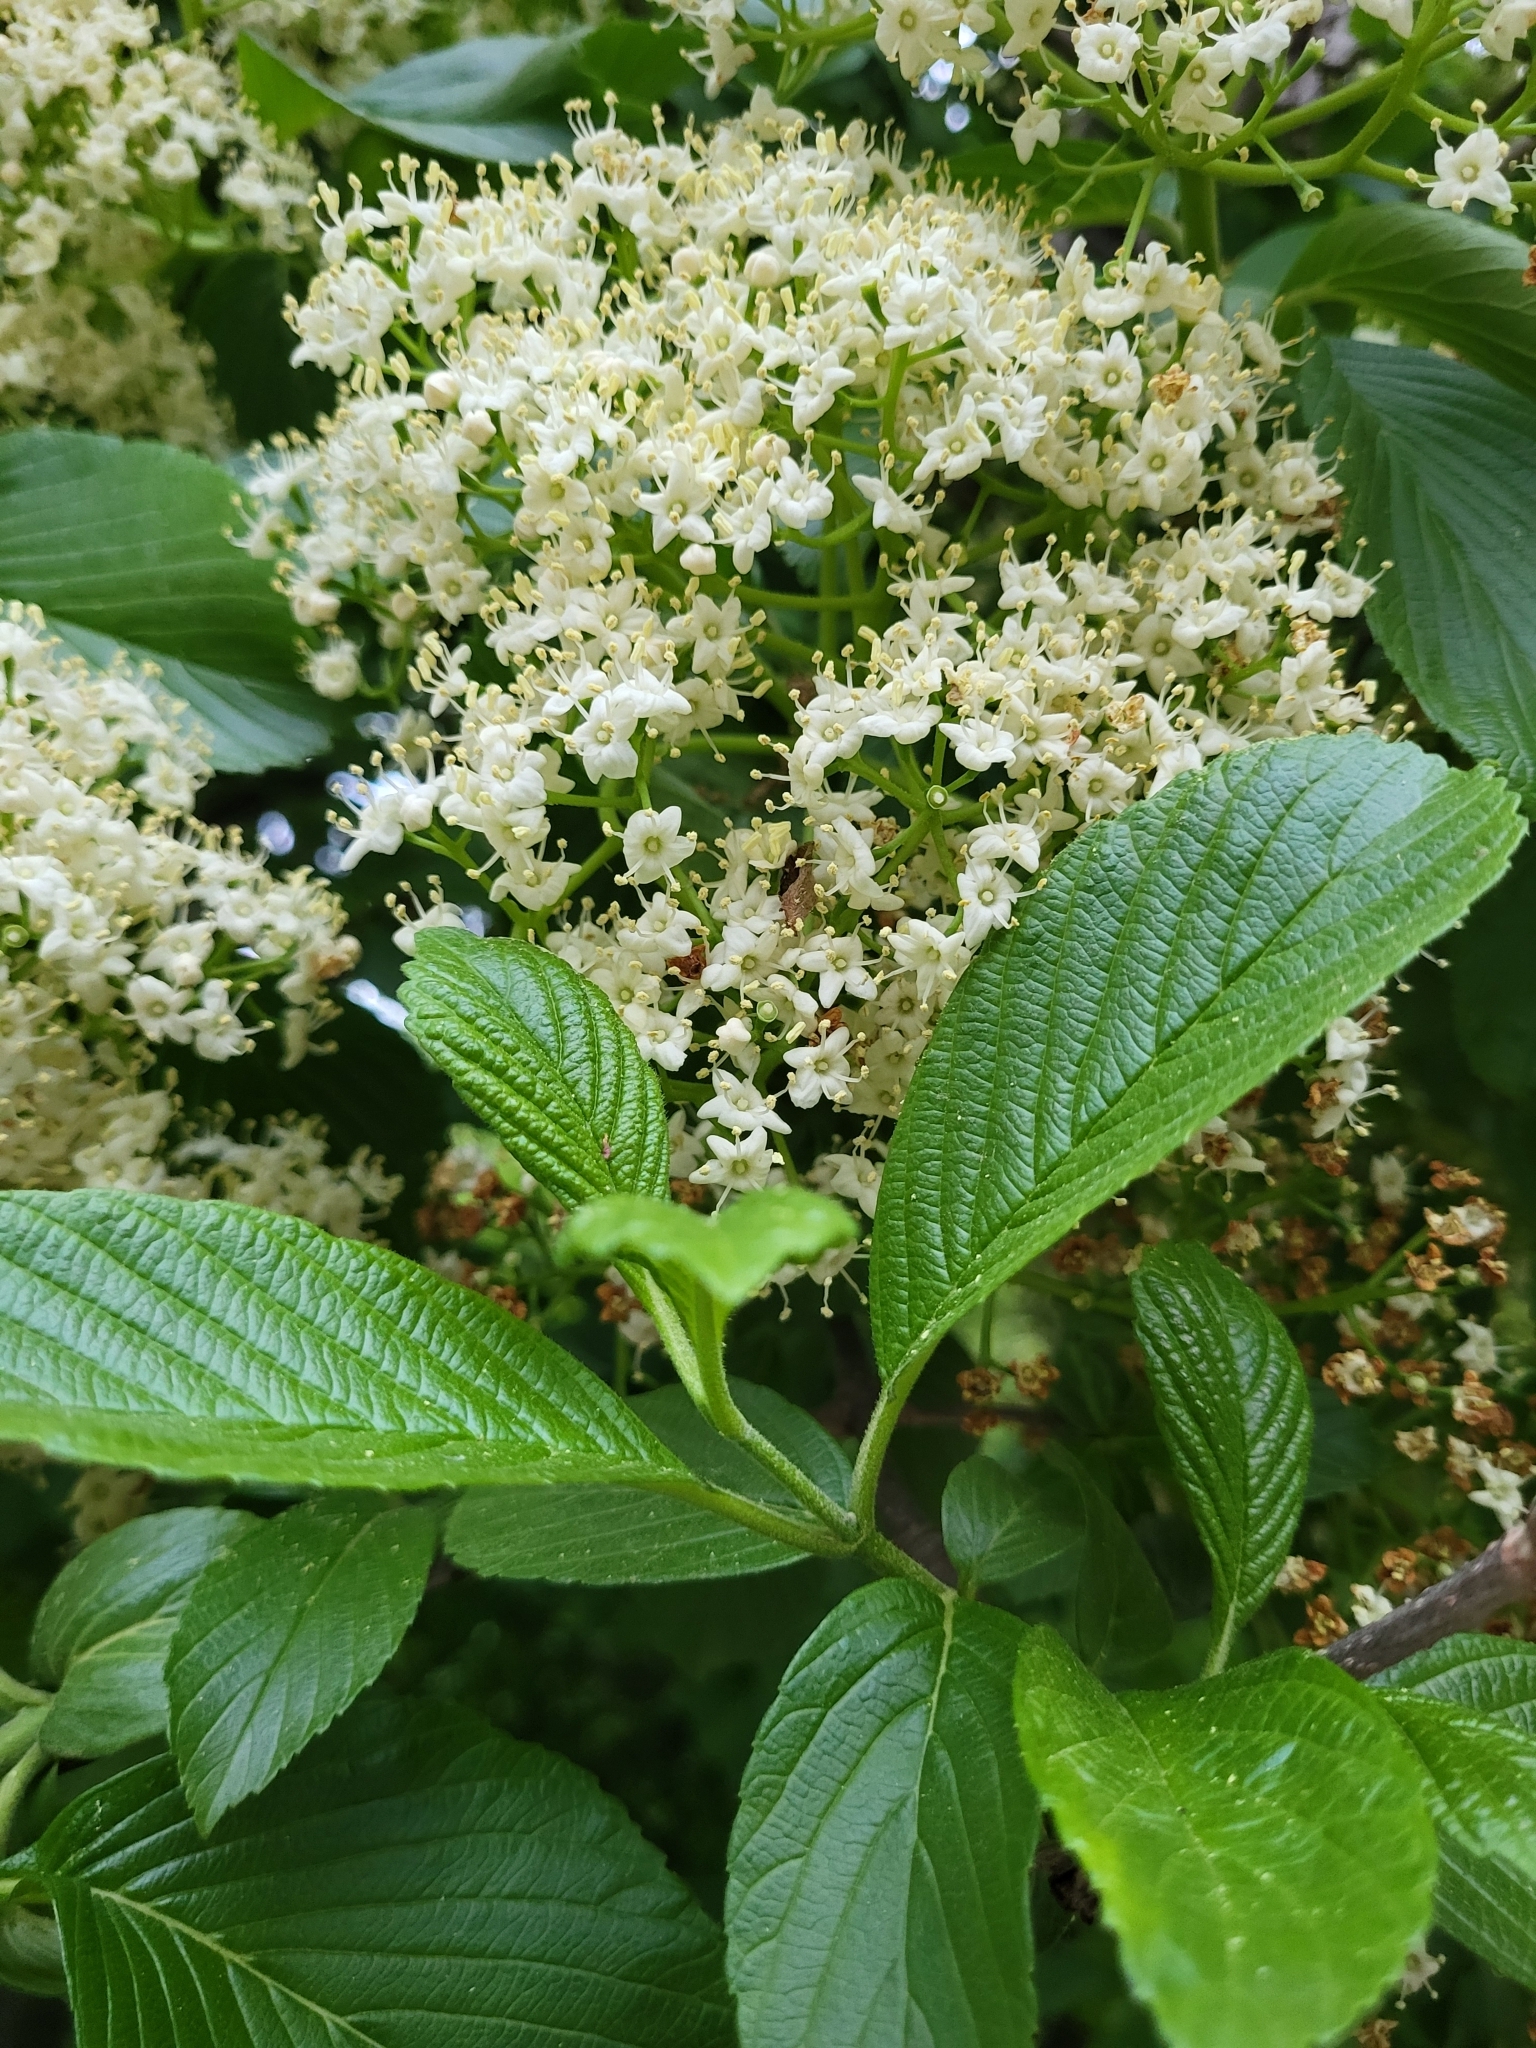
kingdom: Plantae
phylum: Tracheophyta
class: Magnoliopsida
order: Dipsacales
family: Viburnaceae
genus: Viburnum
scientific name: Viburnum sieboldii
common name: Siebold's arrowwood
